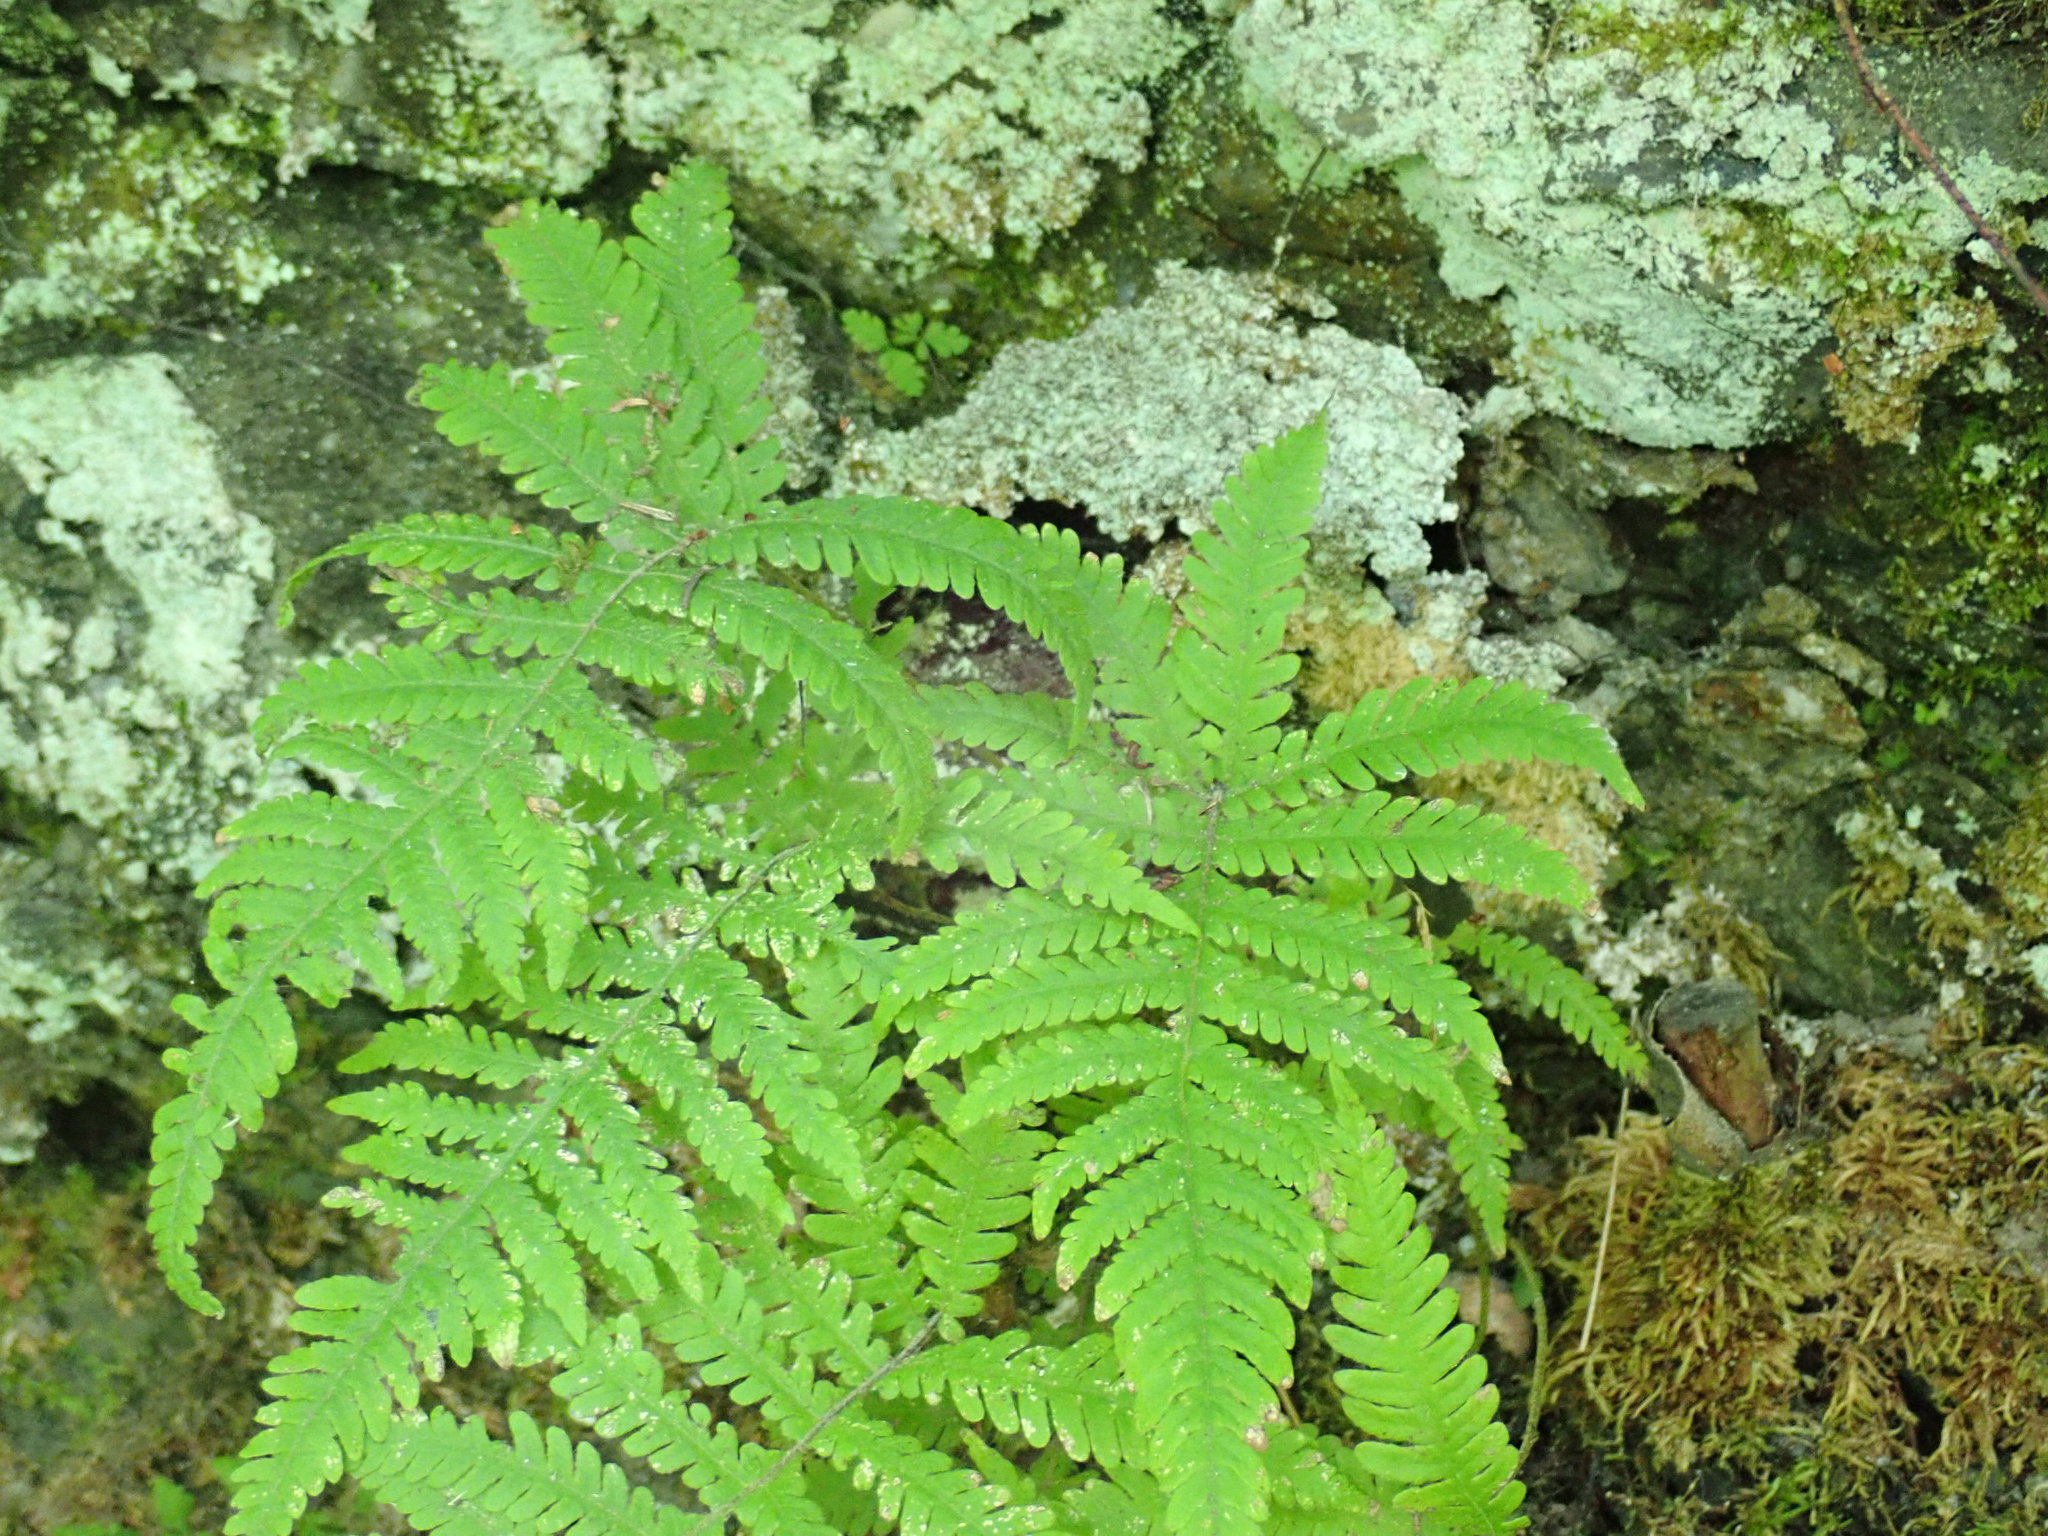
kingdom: Plantae
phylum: Tracheophyta
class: Polypodiopsida
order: Polypodiales
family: Thelypteridaceae
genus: Phegopteris
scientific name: Phegopteris connectilis
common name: Beech fern
